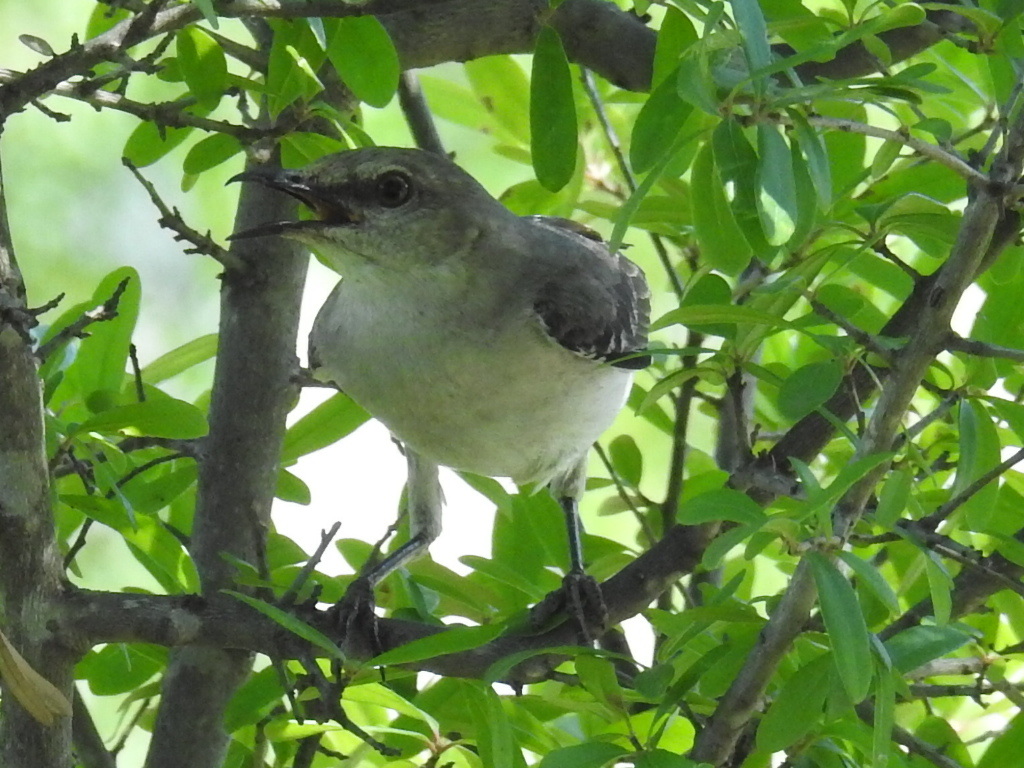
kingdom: Animalia
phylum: Chordata
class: Aves
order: Passeriformes
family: Mimidae
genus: Mimus
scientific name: Mimus polyglottos
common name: Northern mockingbird
